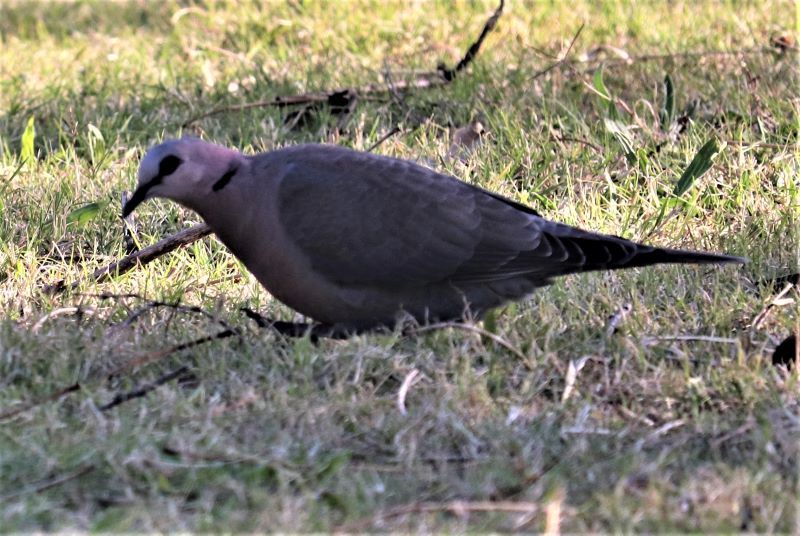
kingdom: Animalia
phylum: Chordata
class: Aves
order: Columbiformes
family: Columbidae
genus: Streptopelia
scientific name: Streptopelia semitorquata
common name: Red-eyed dove
